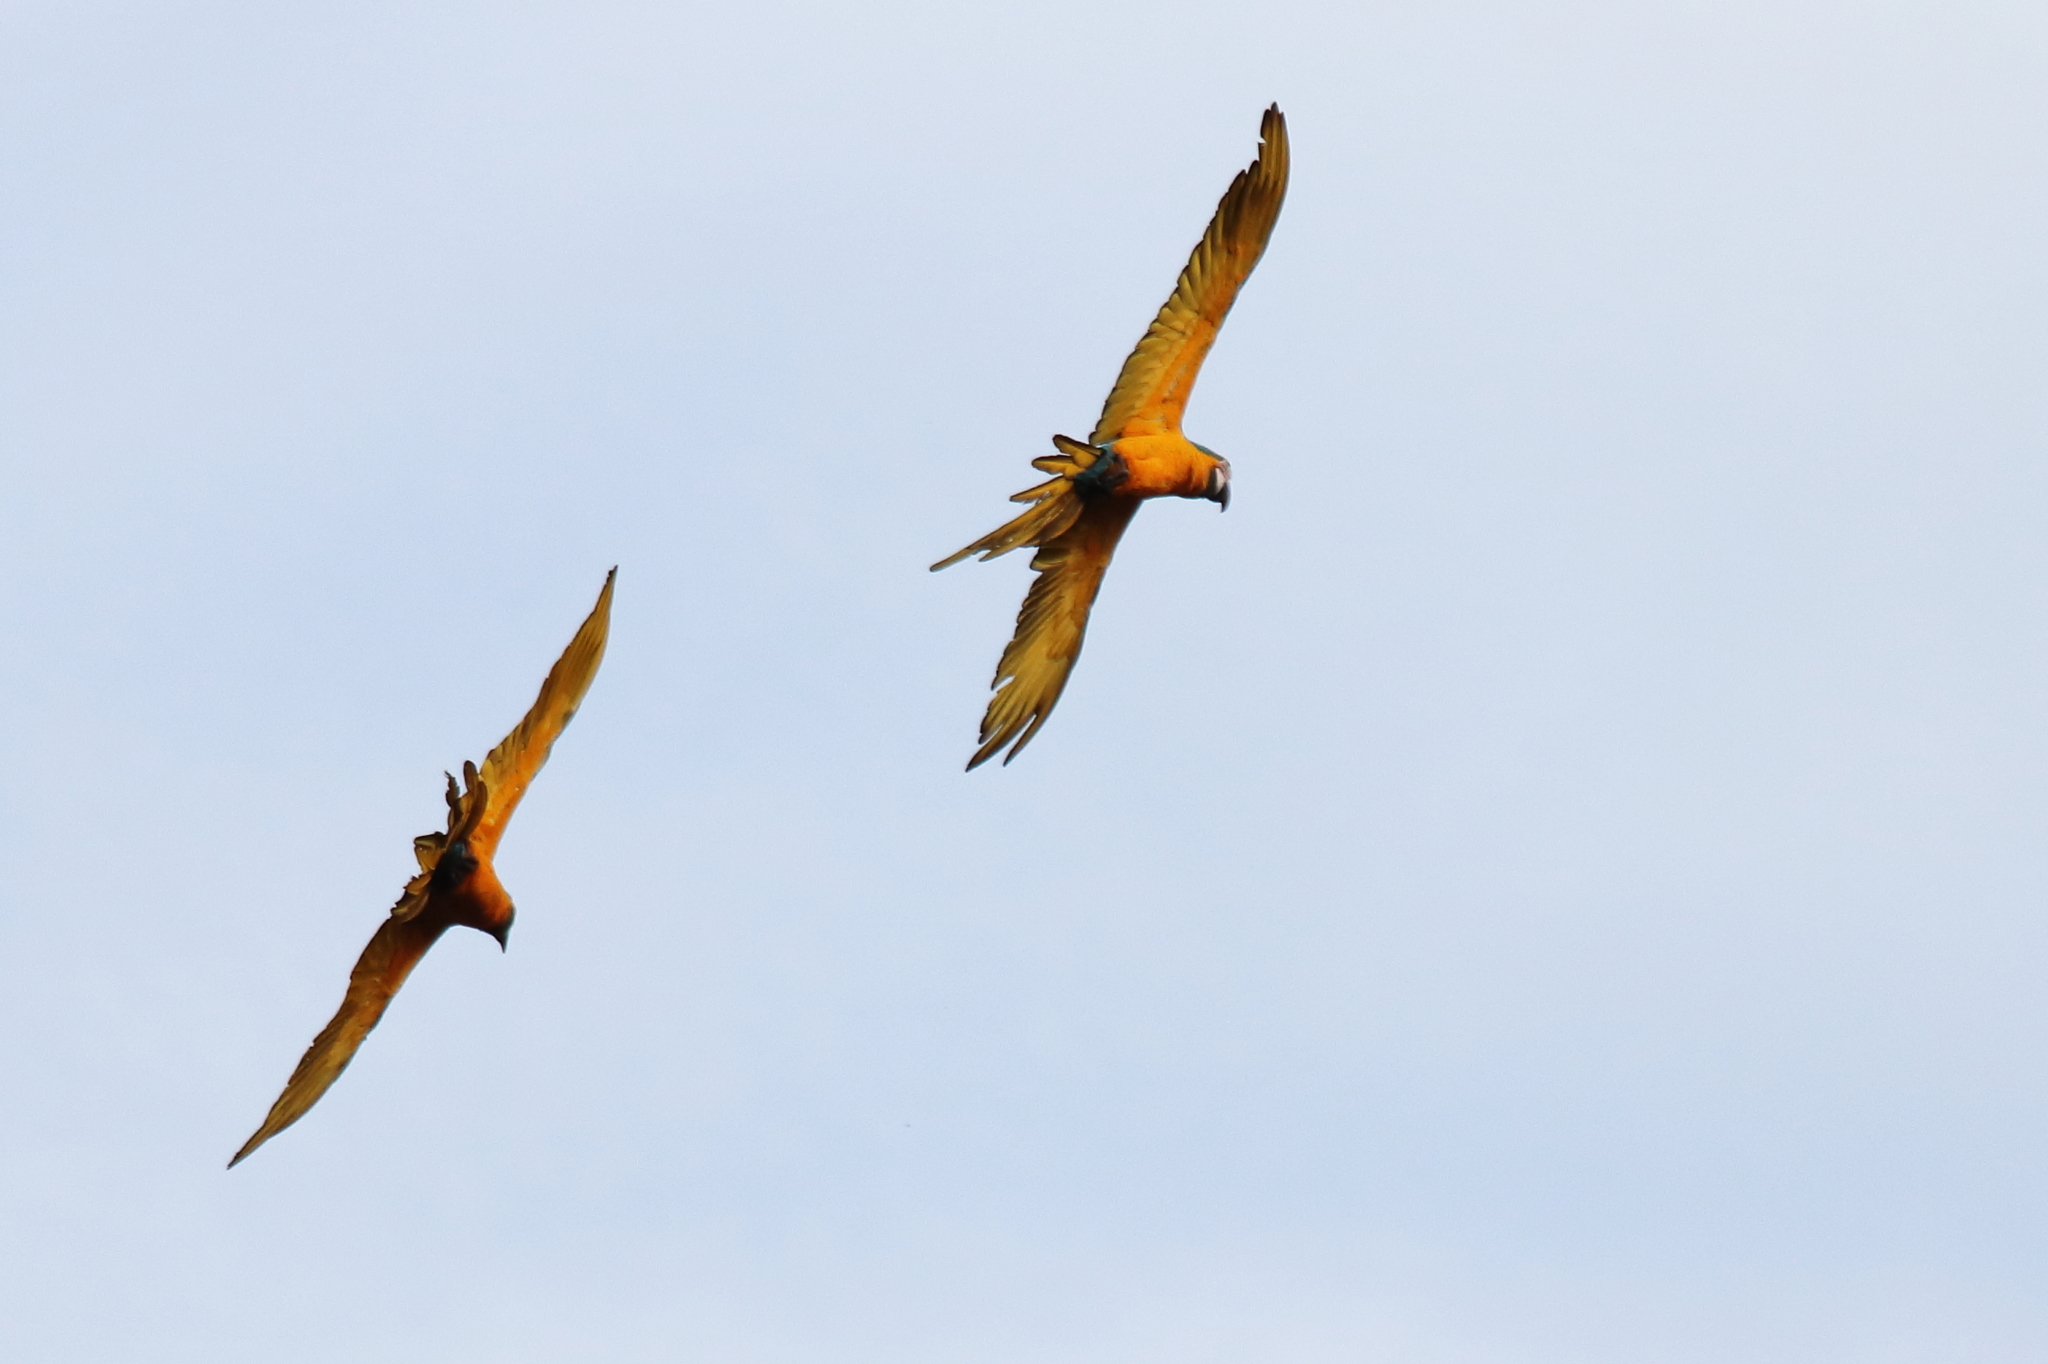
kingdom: Animalia
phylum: Chordata
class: Aves
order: Psittaciformes
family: Psittacidae
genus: Ara
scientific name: Ara ararauna
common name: Blue-and-yellow macaw
